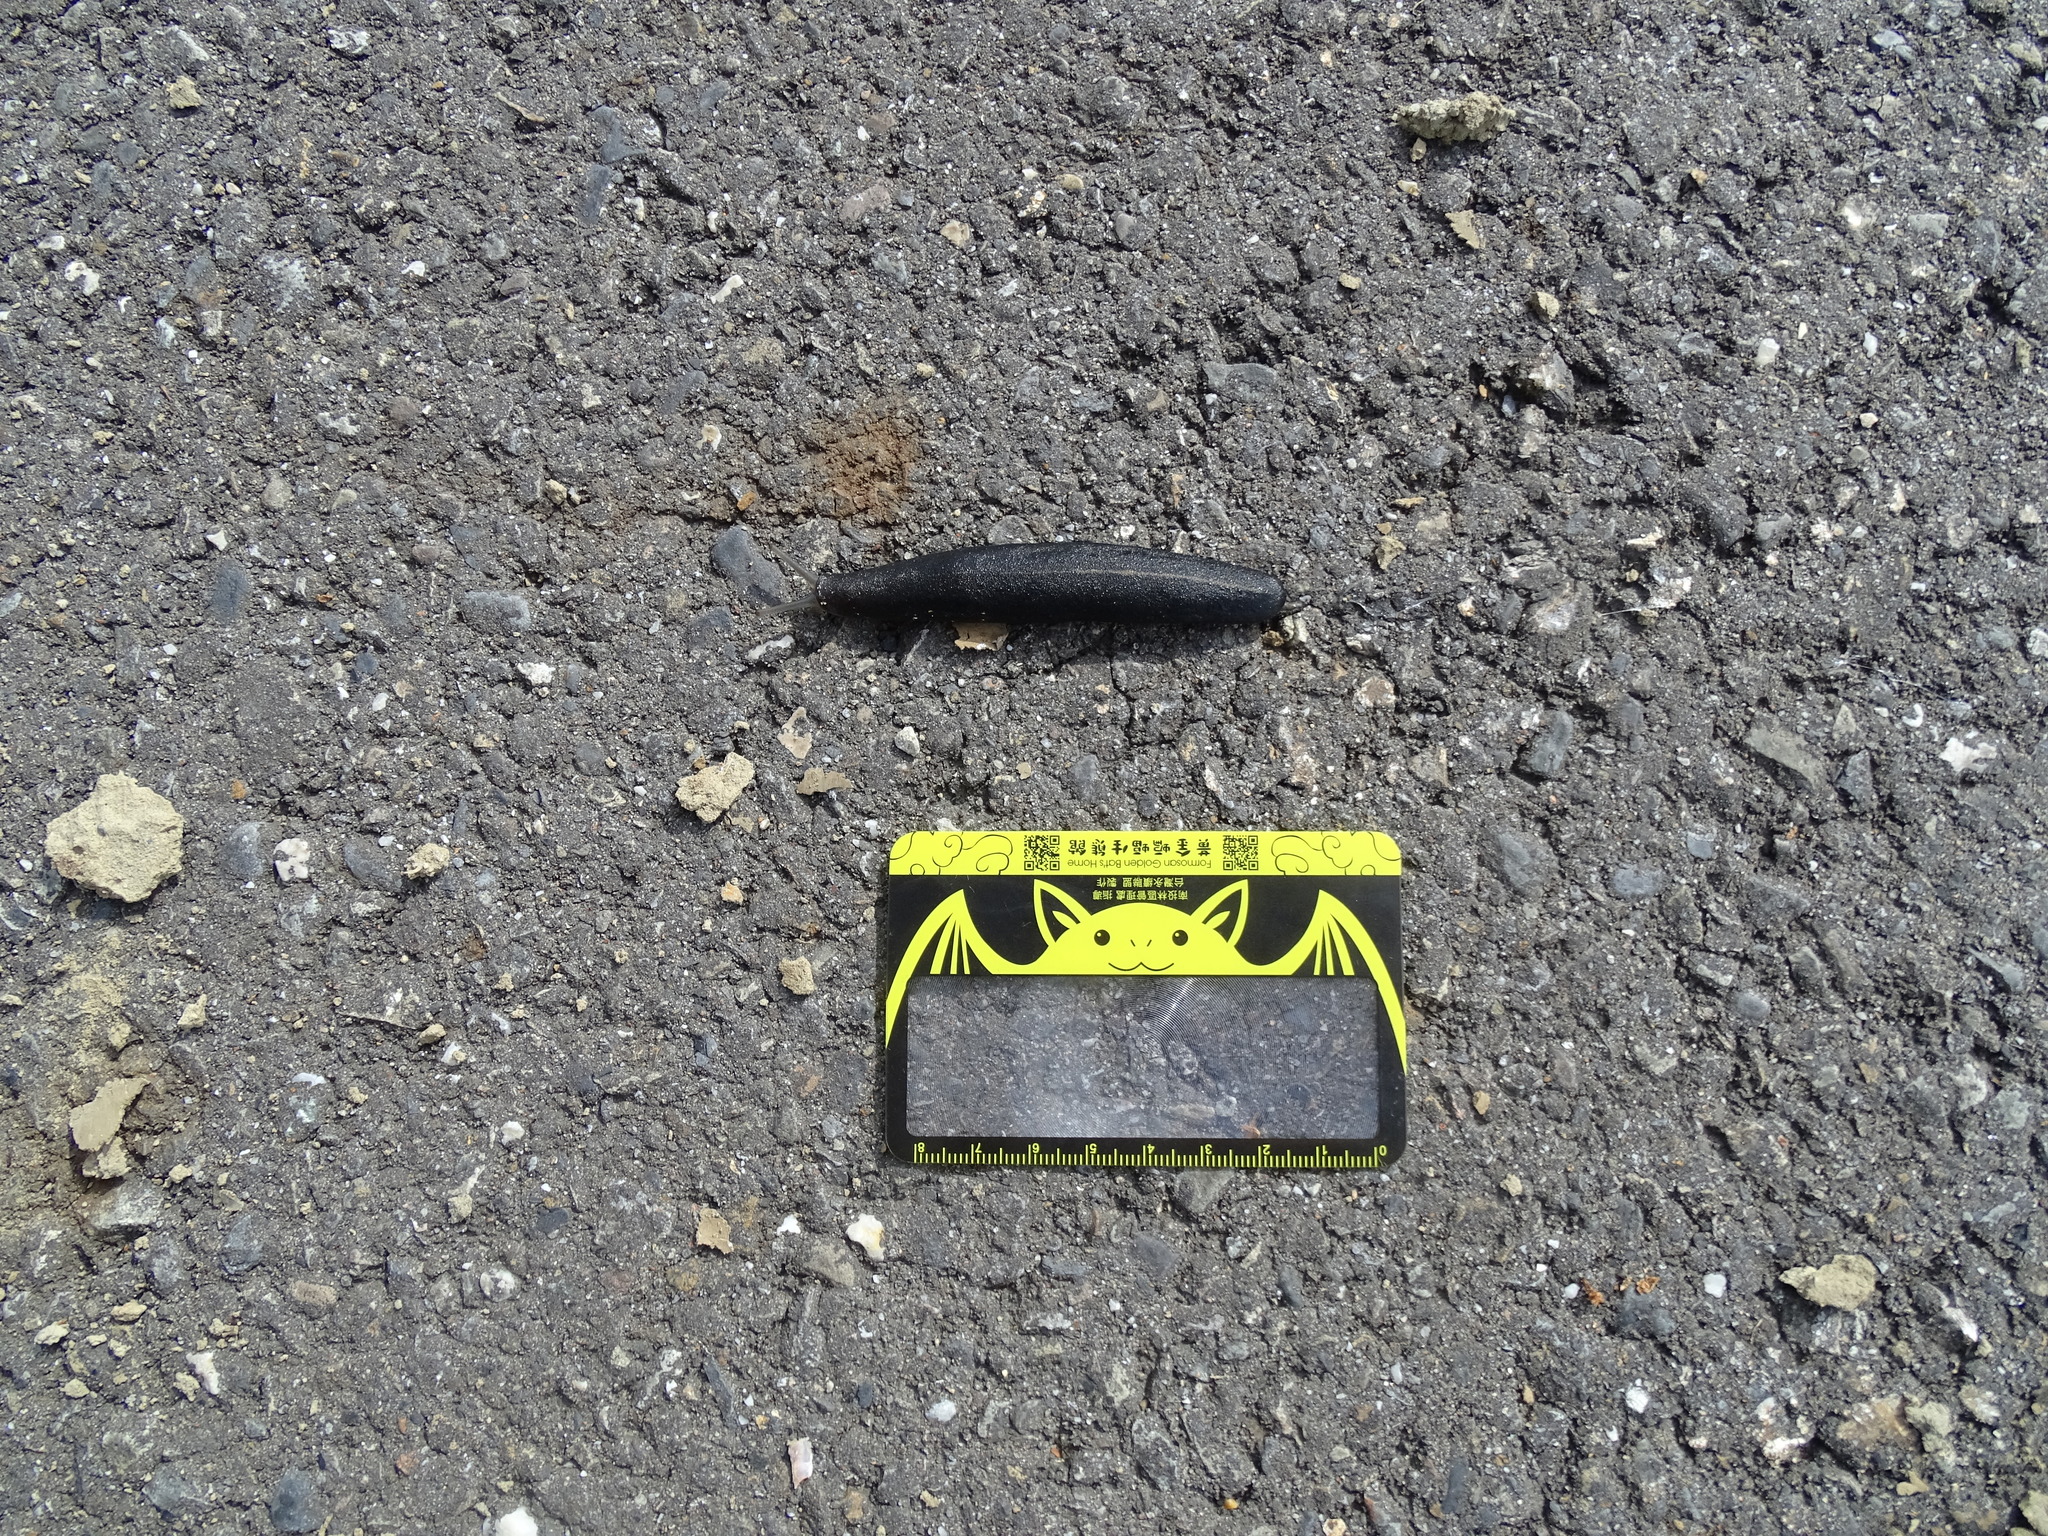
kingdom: Animalia
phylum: Mollusca
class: Gastropoda
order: Systellommatophora
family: Veronicellidae
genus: Laevicaulis
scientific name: Laevicaulis alte
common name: Tropical leatherleaf
